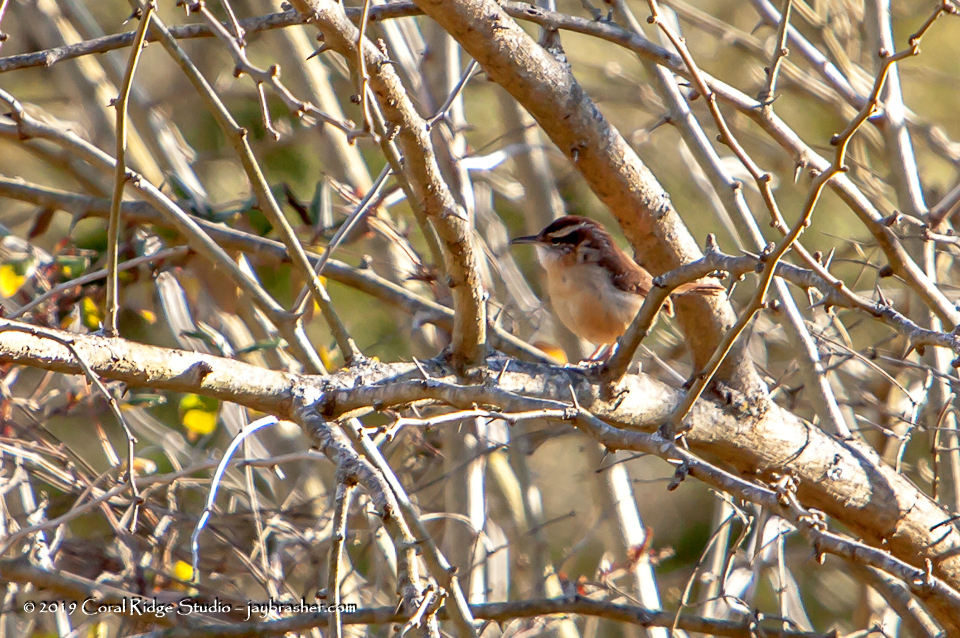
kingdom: Animalia
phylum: Chordata
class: Aves
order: Passeriformes
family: Troglodytidae
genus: Thryothorus
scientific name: Thryothorus ludovicianus
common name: Carolina wren
